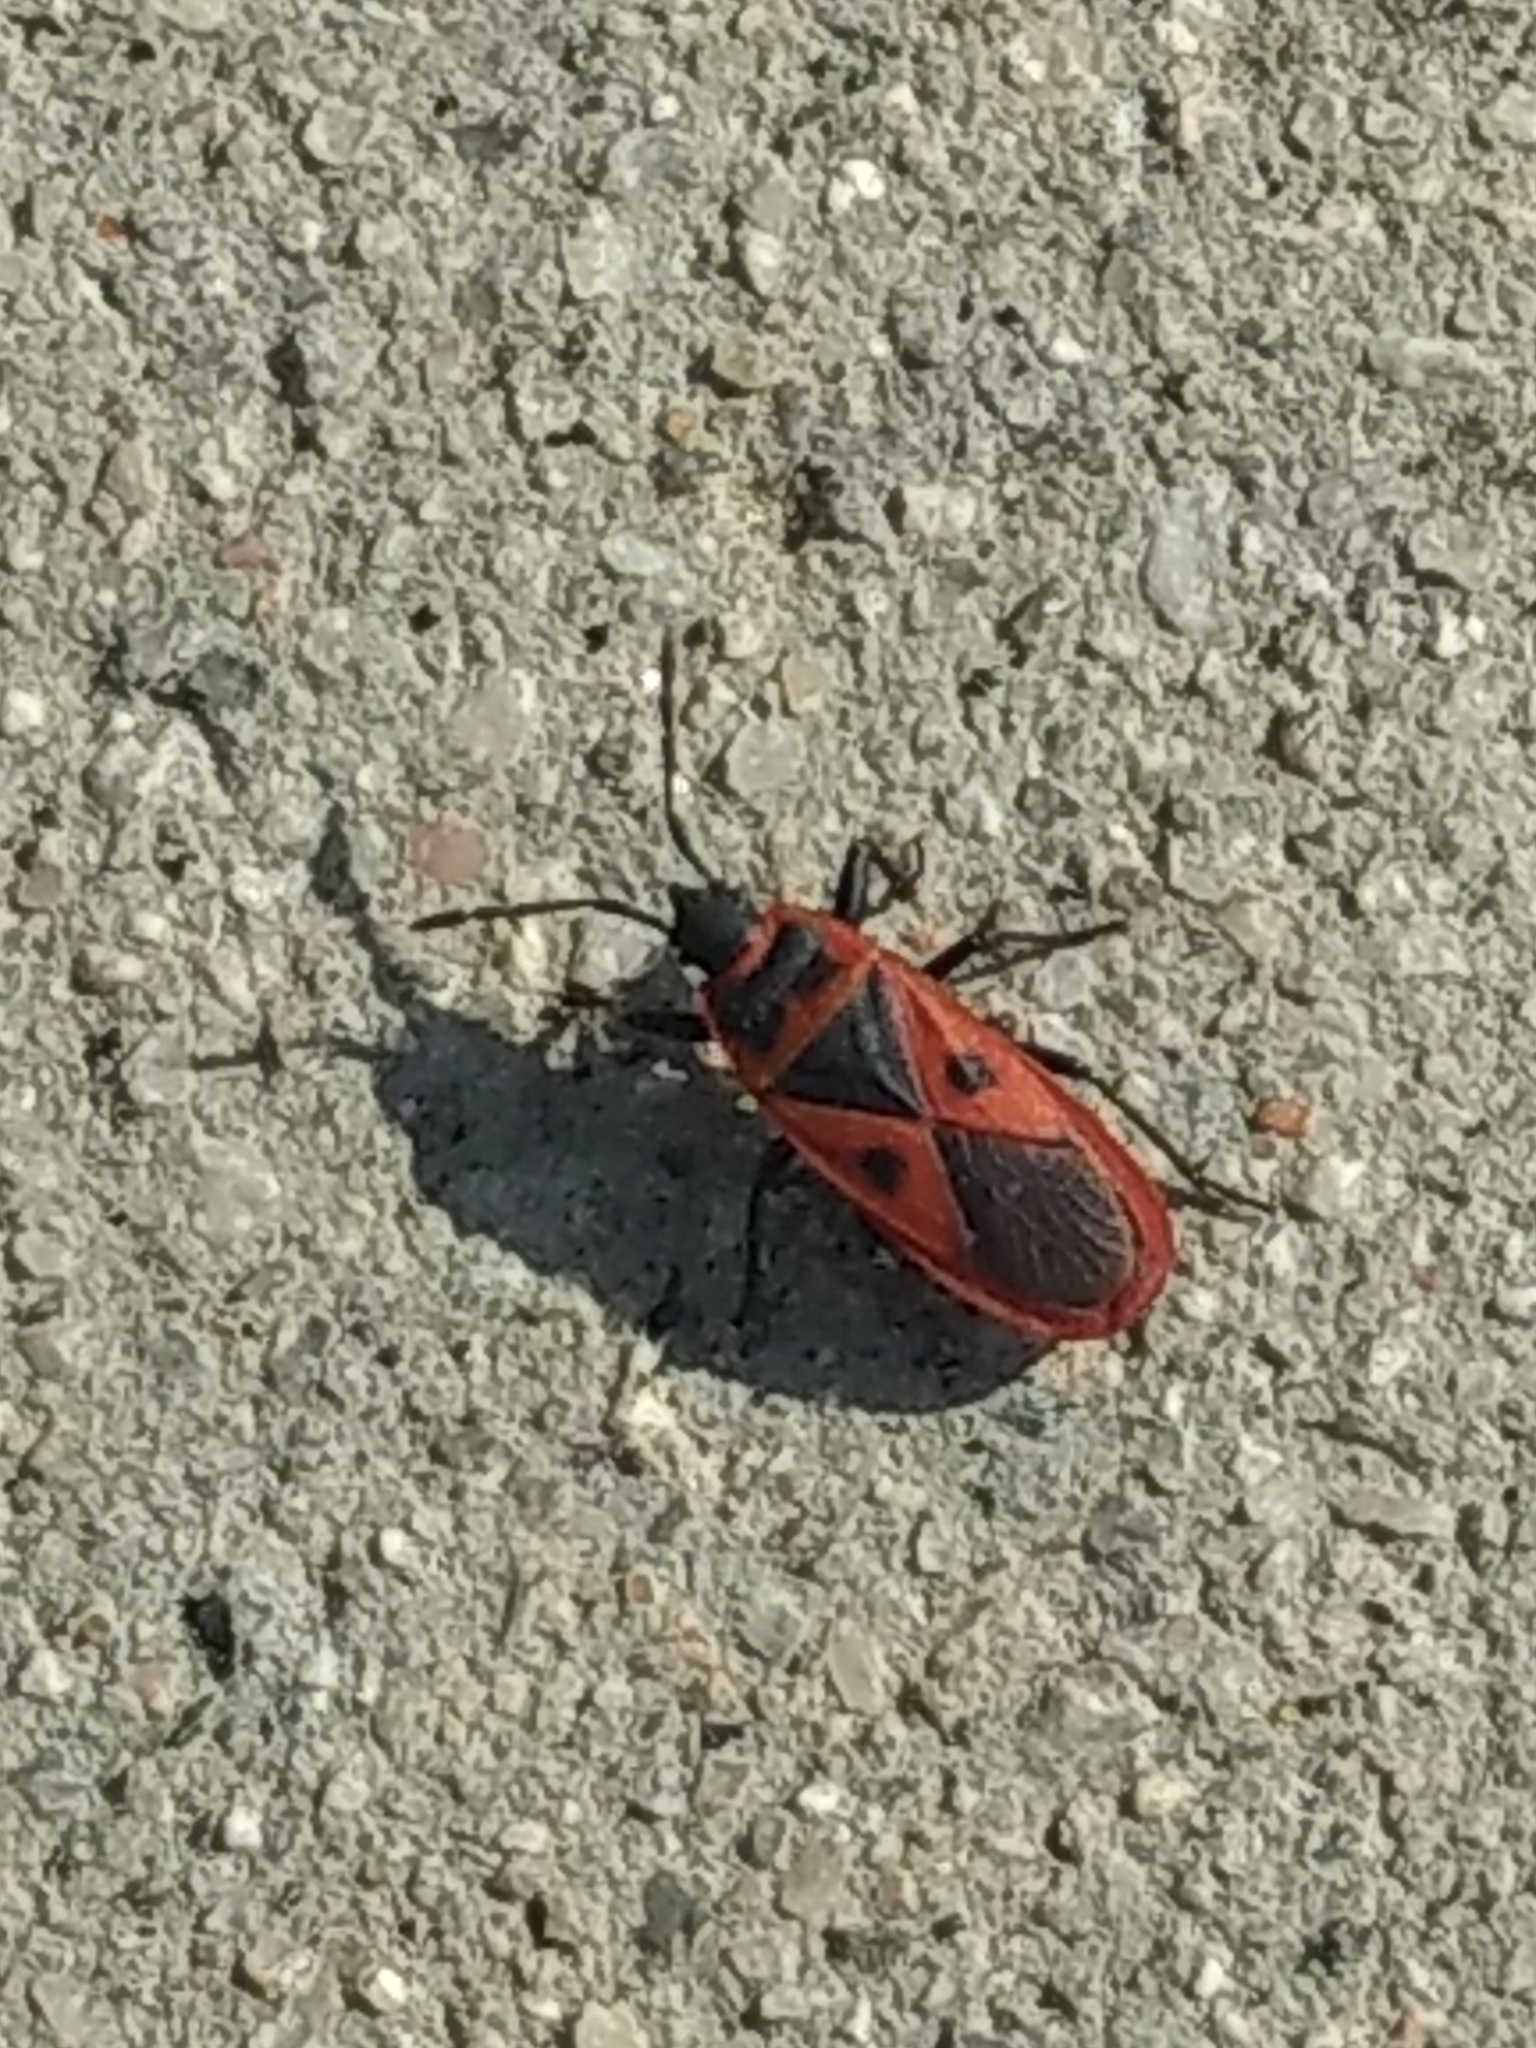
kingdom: Animalia
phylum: Arthropoda
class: Insecta
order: Hemiptera
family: Pyrrhocoridae
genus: Scantius
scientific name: Scantius aegyptius
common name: Red bug
